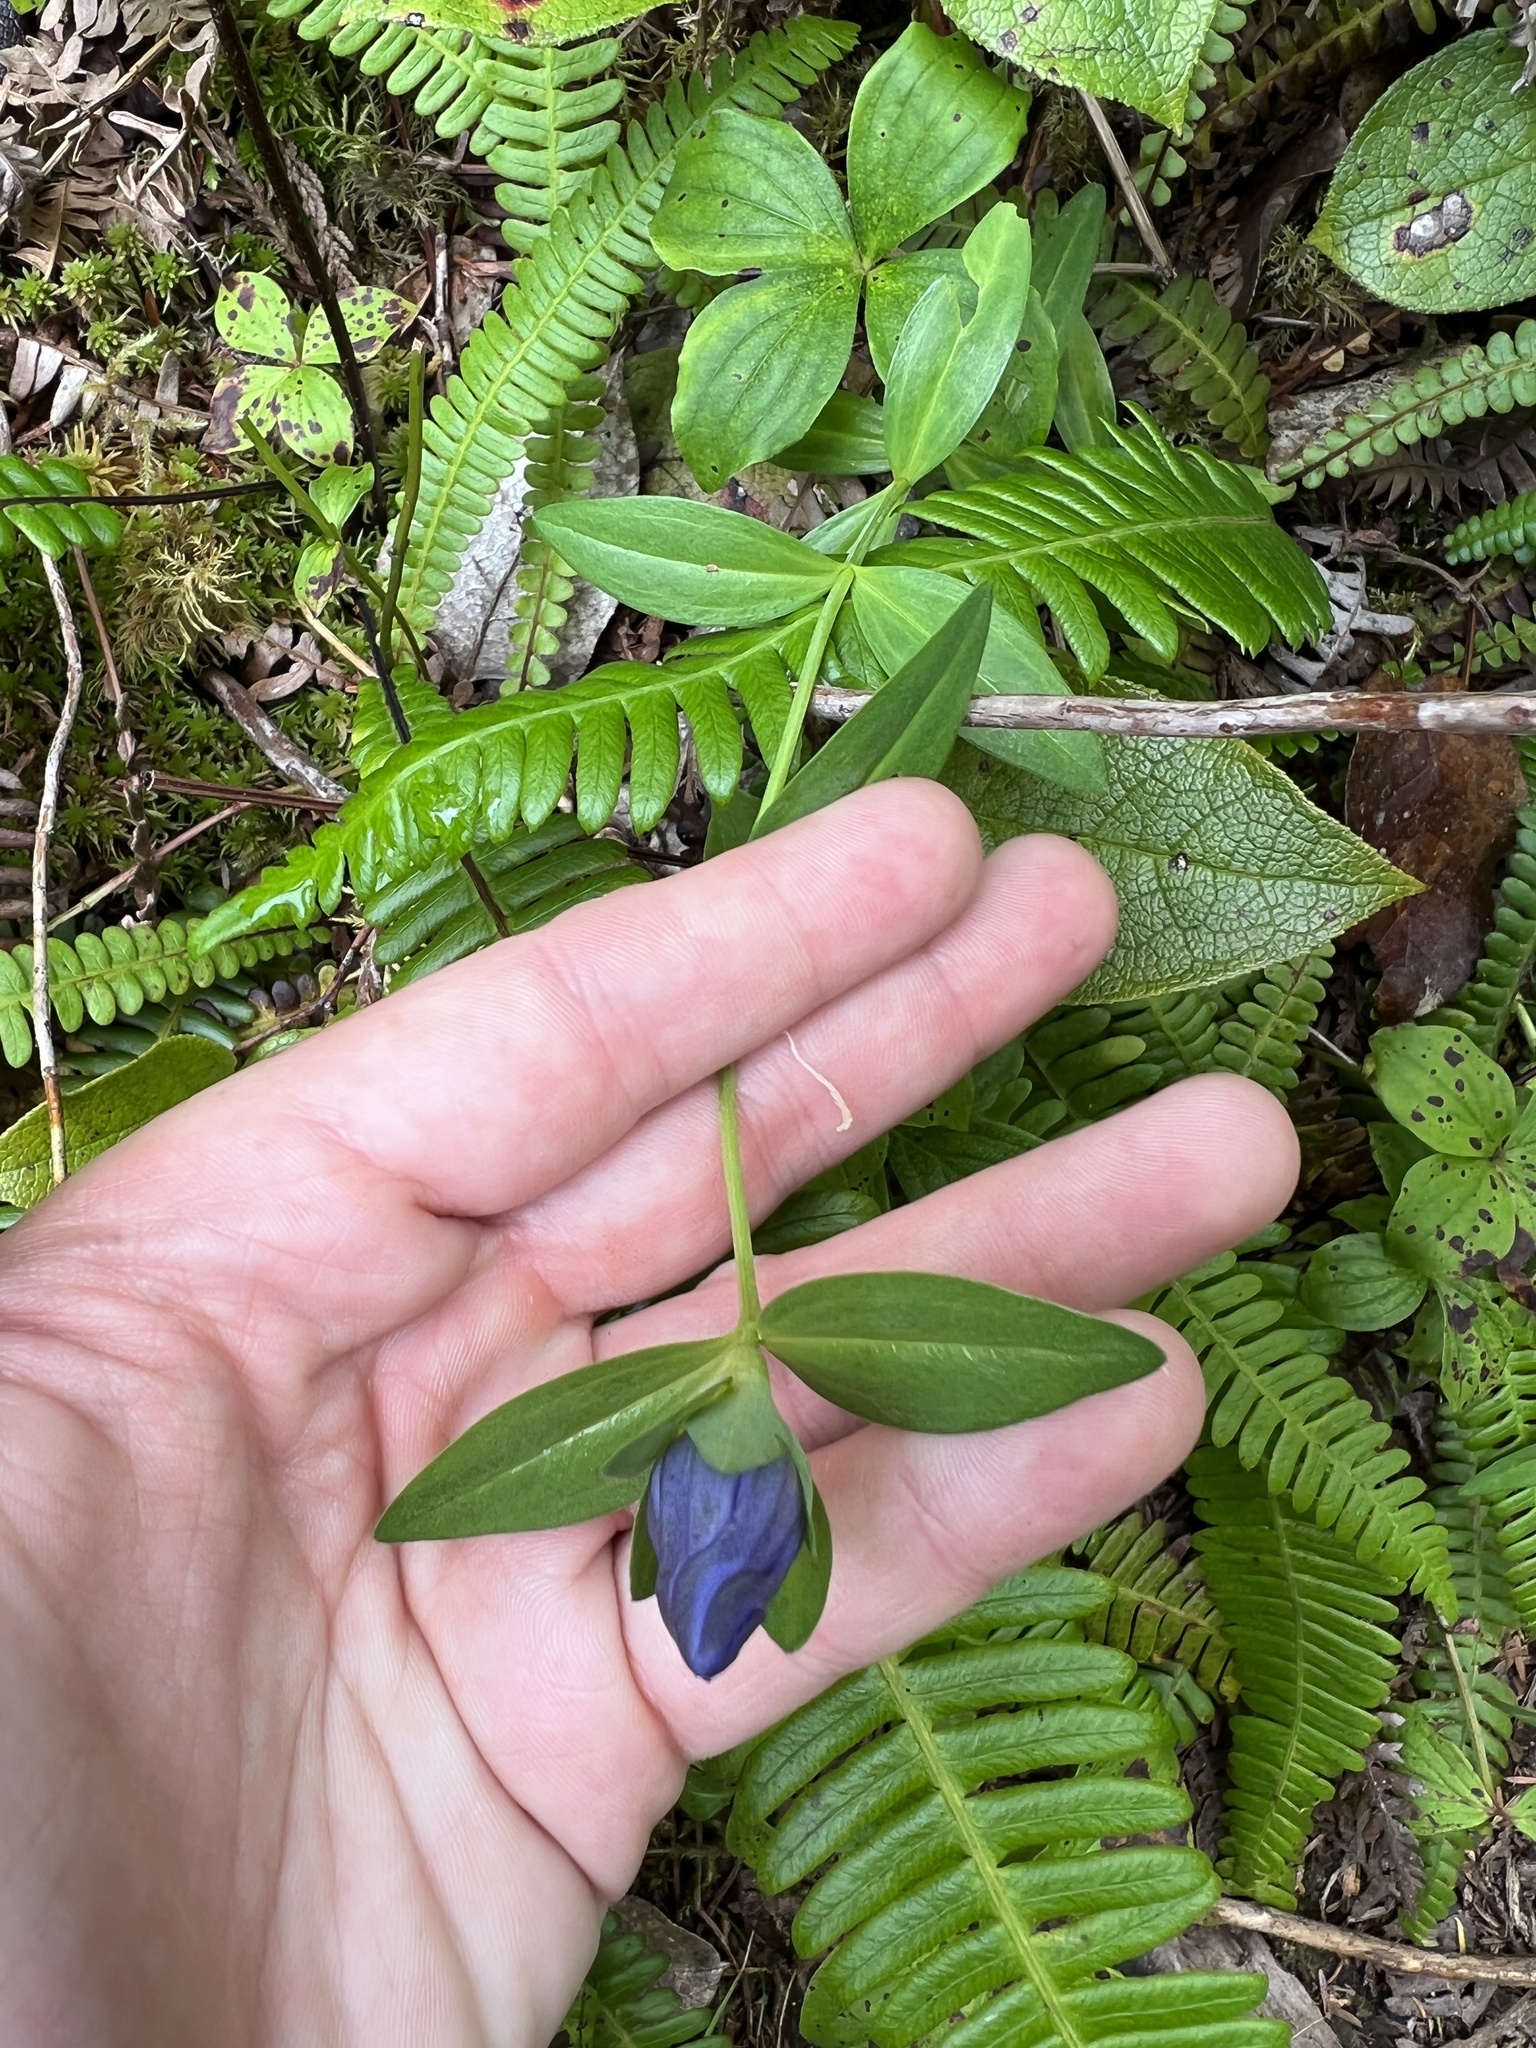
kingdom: Plantae
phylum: Tracheophyta
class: Magnoliopsida
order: Gentianales
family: Gentianaceae
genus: Gentiana
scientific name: Gentiana sceptrum
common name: Pacific gentian
